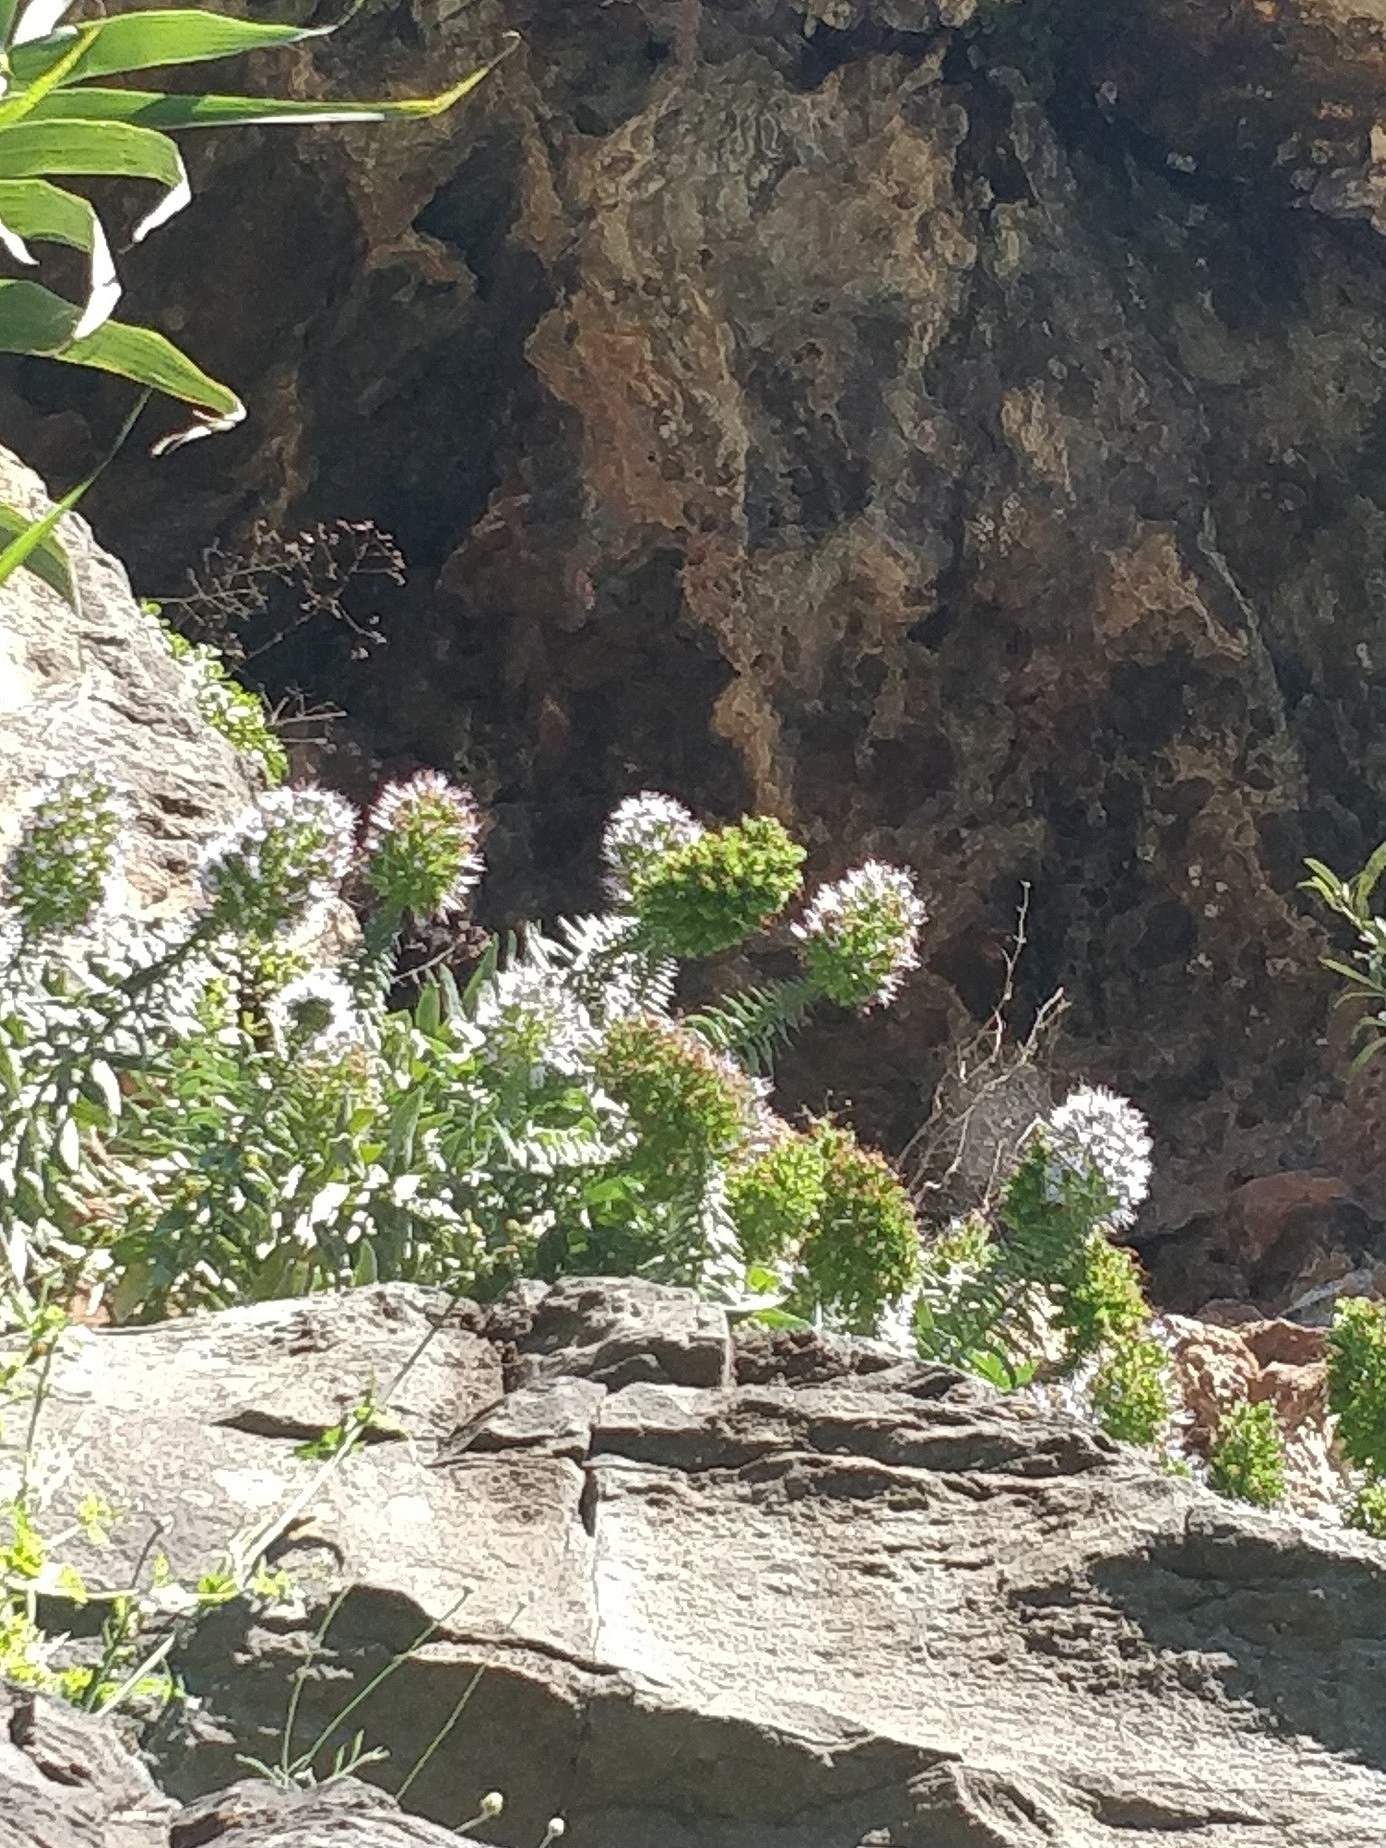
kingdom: Plantae
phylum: Tracheophyta
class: Magnoliopsida
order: Boraginales
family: Boraginaceae
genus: Echium
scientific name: Echium nervosum
